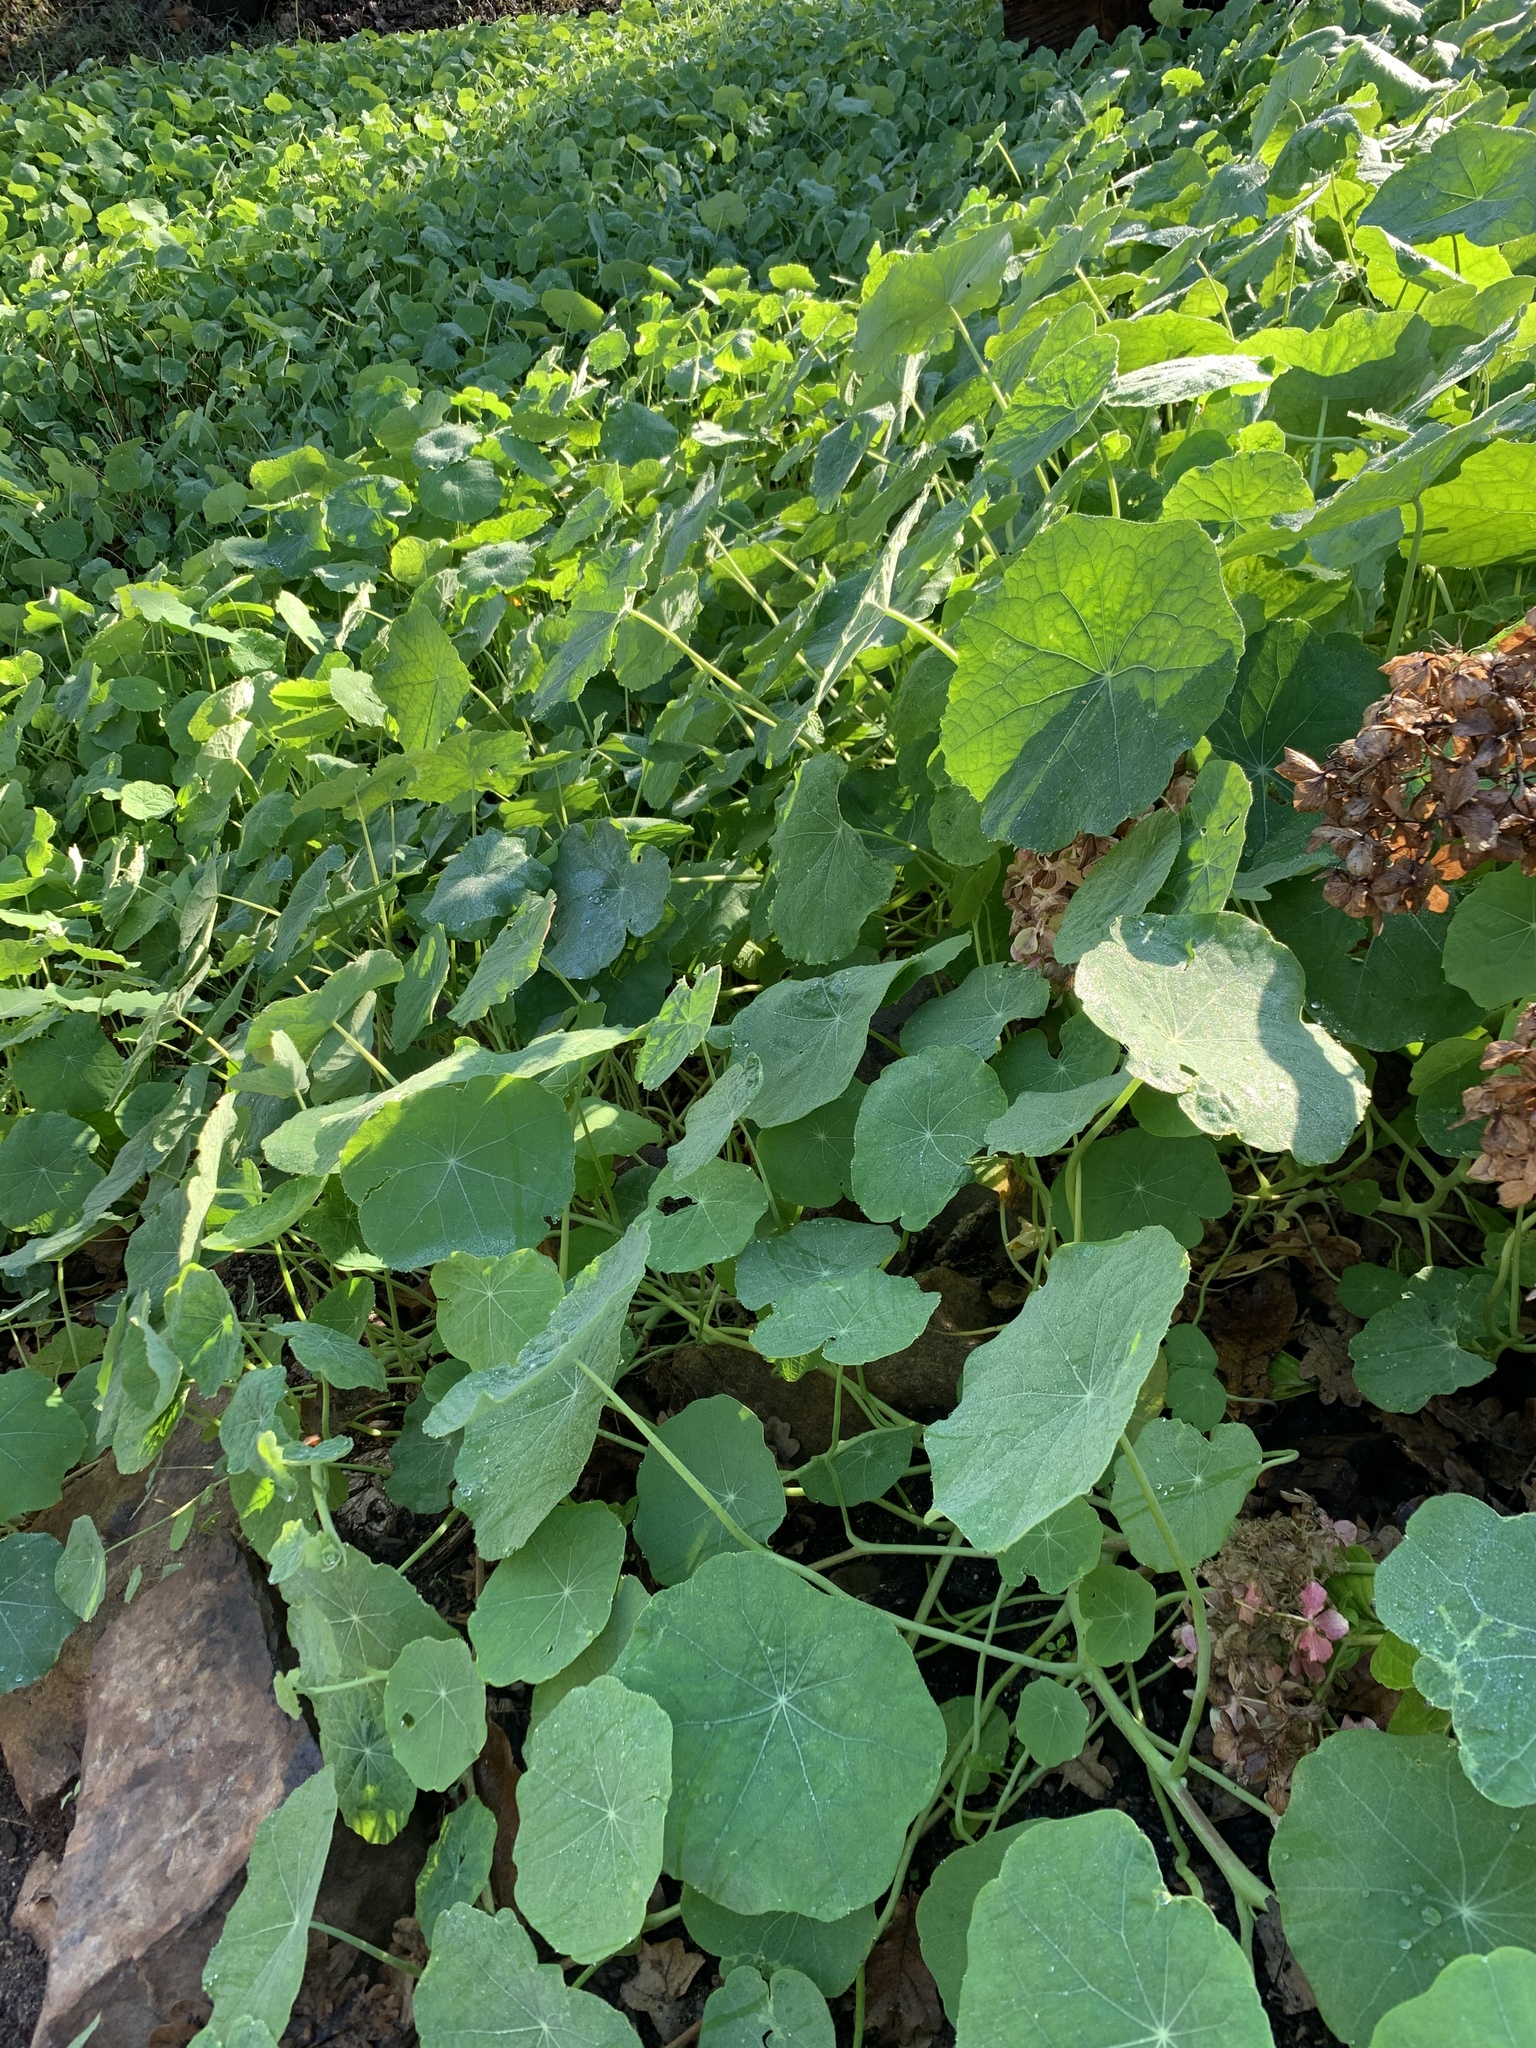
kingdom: Plantae
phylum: Tracheophyta
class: Magnoliopsida
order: Brassicales
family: Tropaeolaceae
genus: Tropaeolum
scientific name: Tropaeolum majus
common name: Nasturtium
